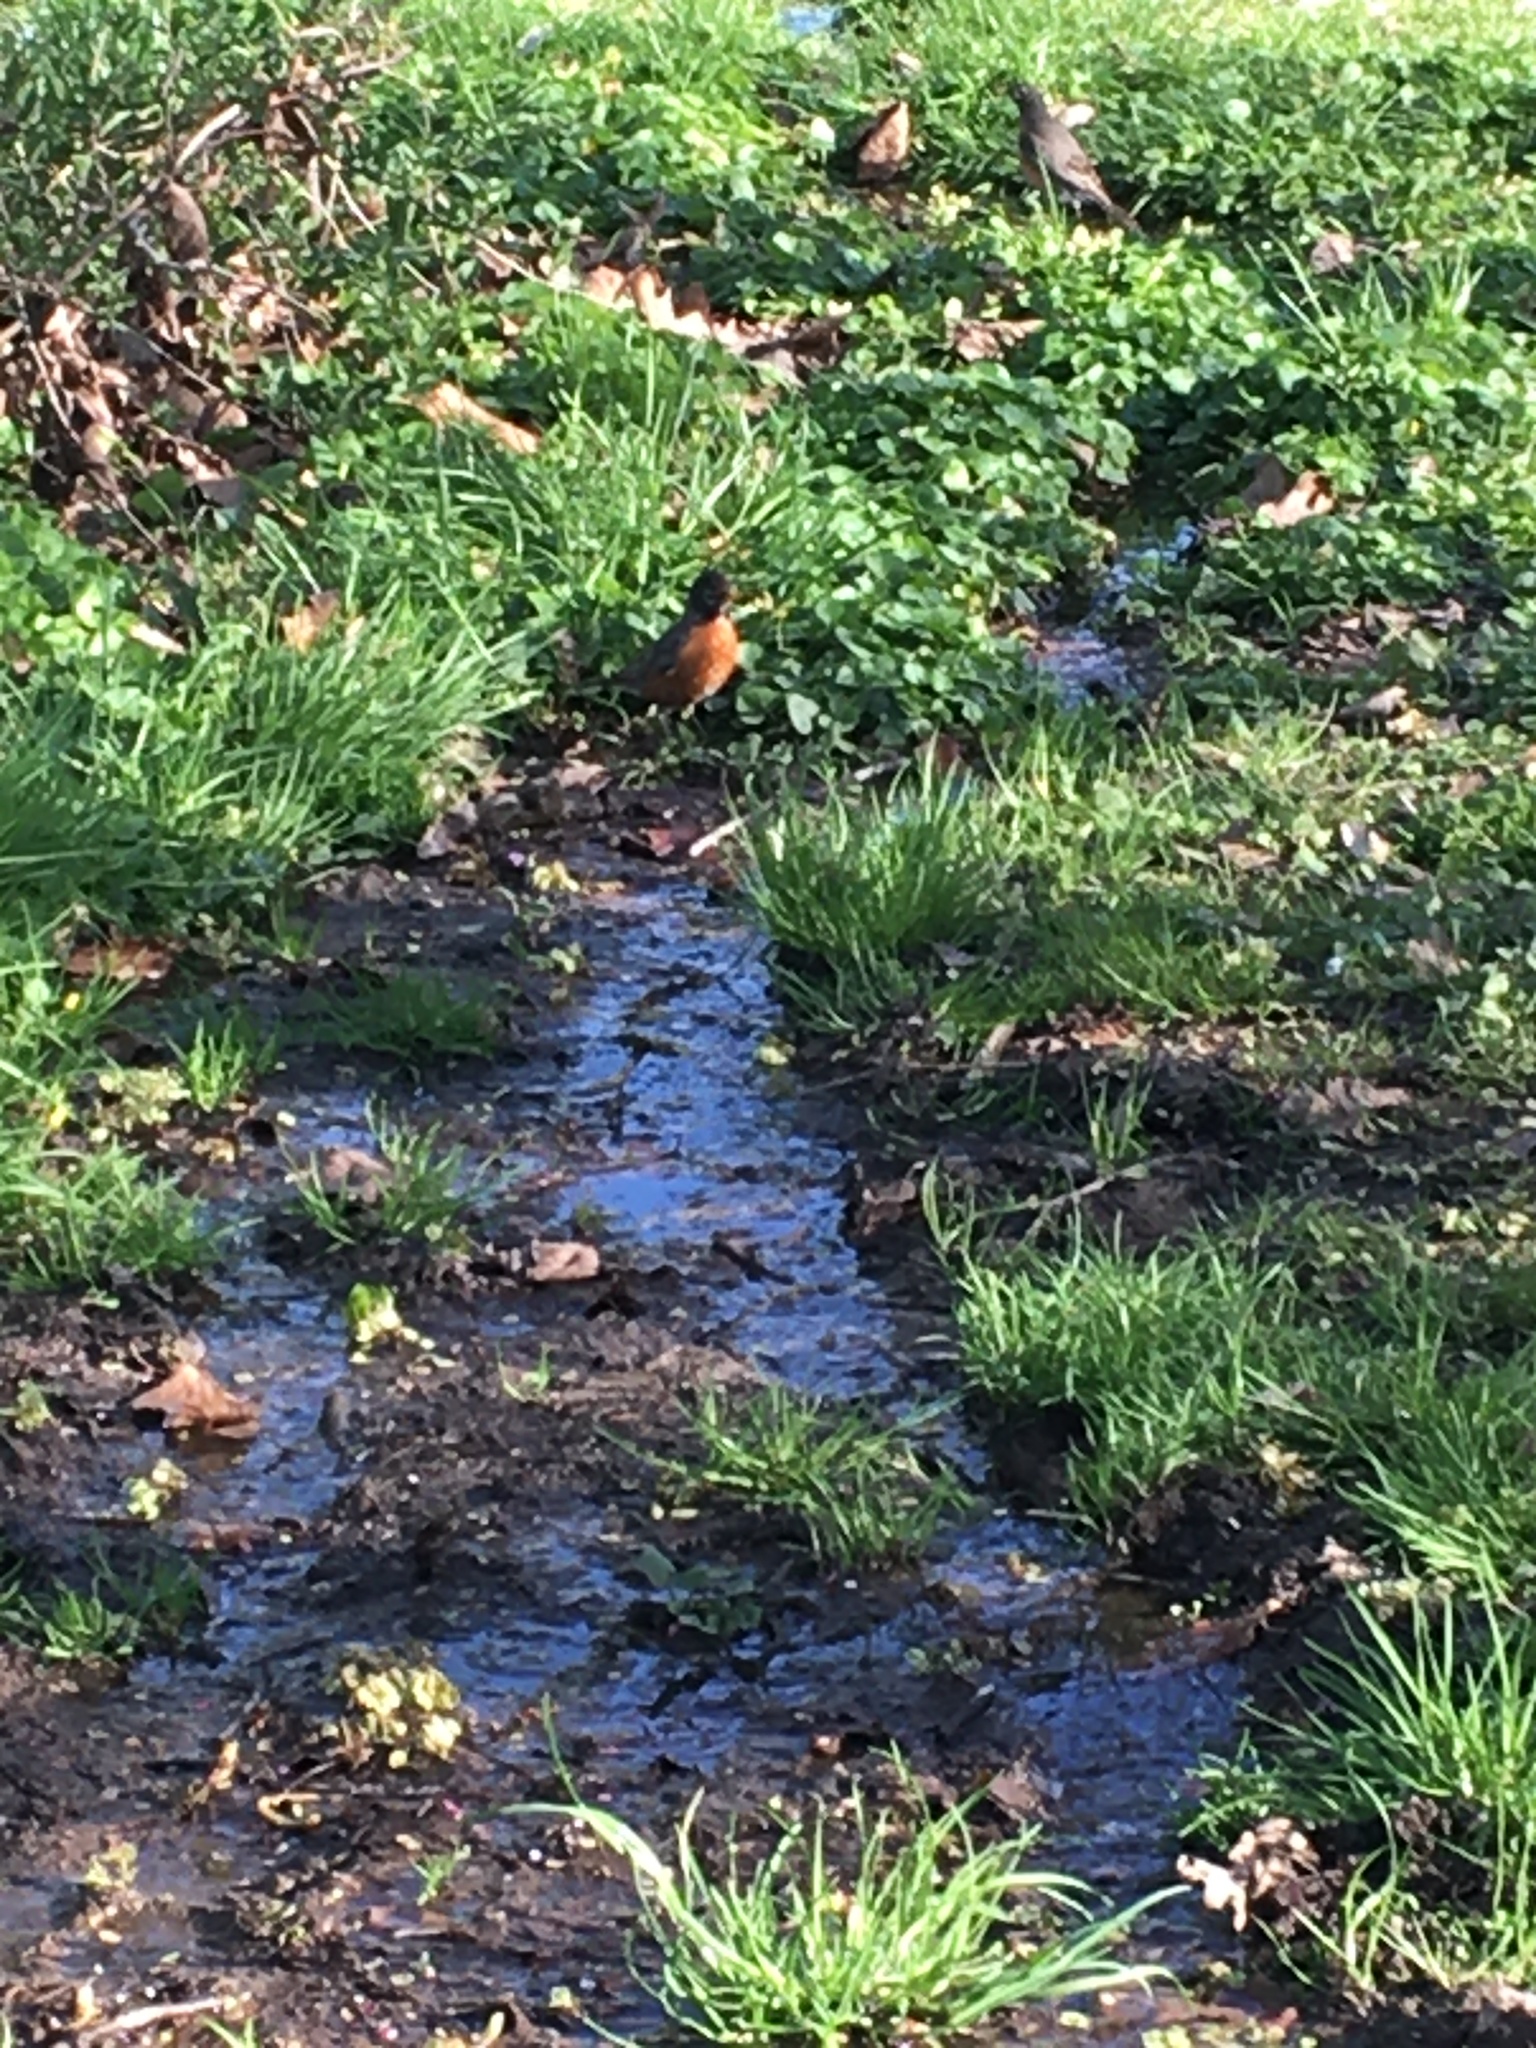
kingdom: Animalia
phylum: Chordata
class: Aves
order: Passeriformes
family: Turdidae
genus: Turdus
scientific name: Turdus migratorius
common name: American robin
